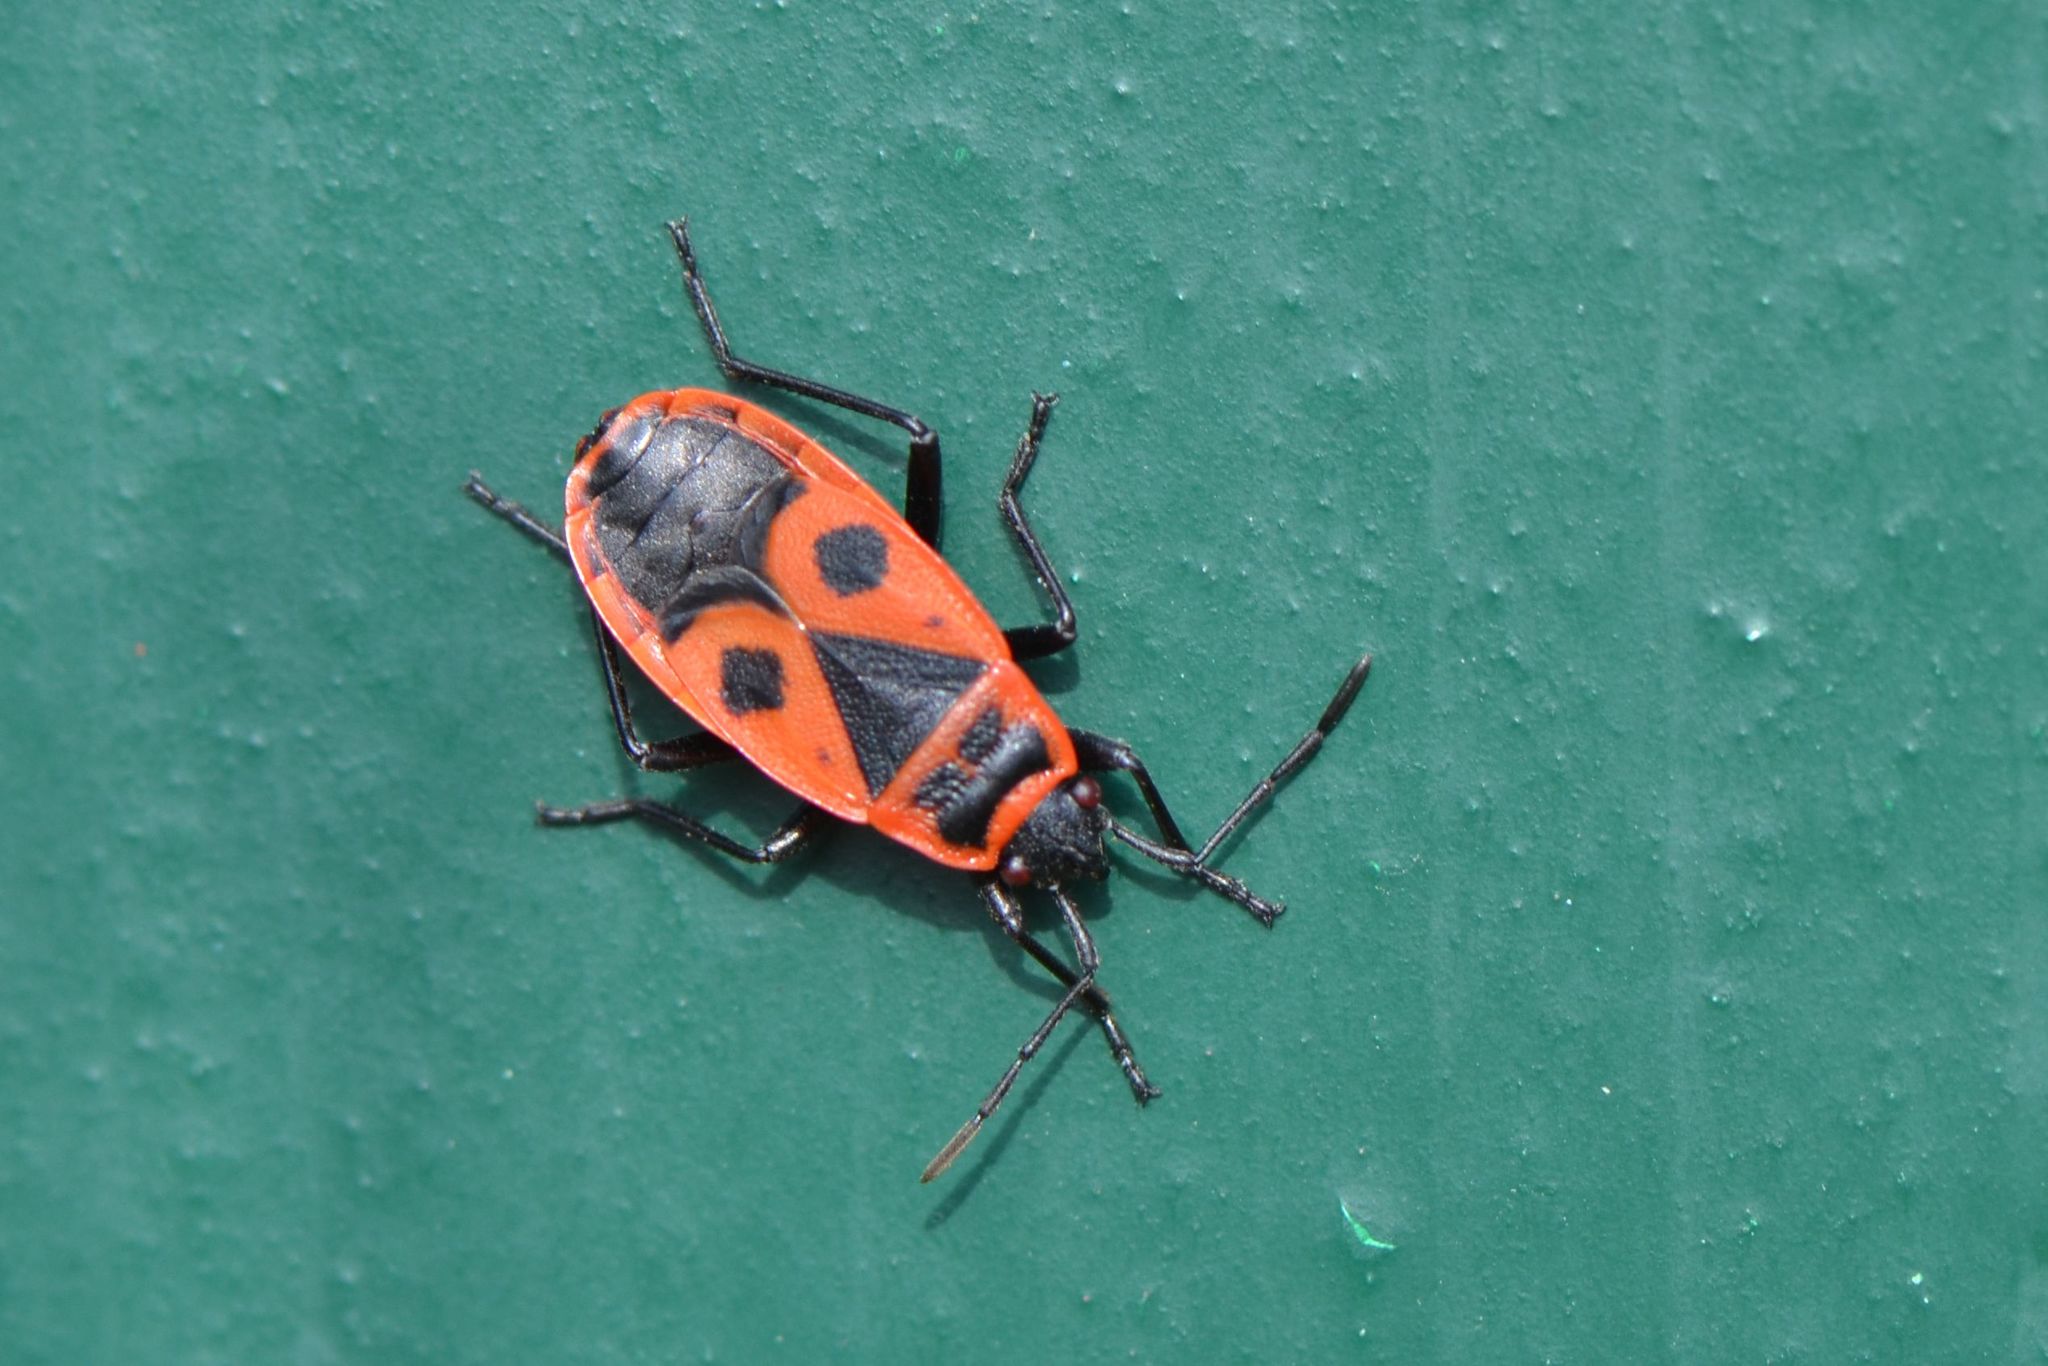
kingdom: Animalia
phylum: Arthropoda
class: Insecta
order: Hemiptera
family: Pyrrhocoridae
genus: Pyrrhocoris
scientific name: Pyrrhocoris apterus
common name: Firebug
